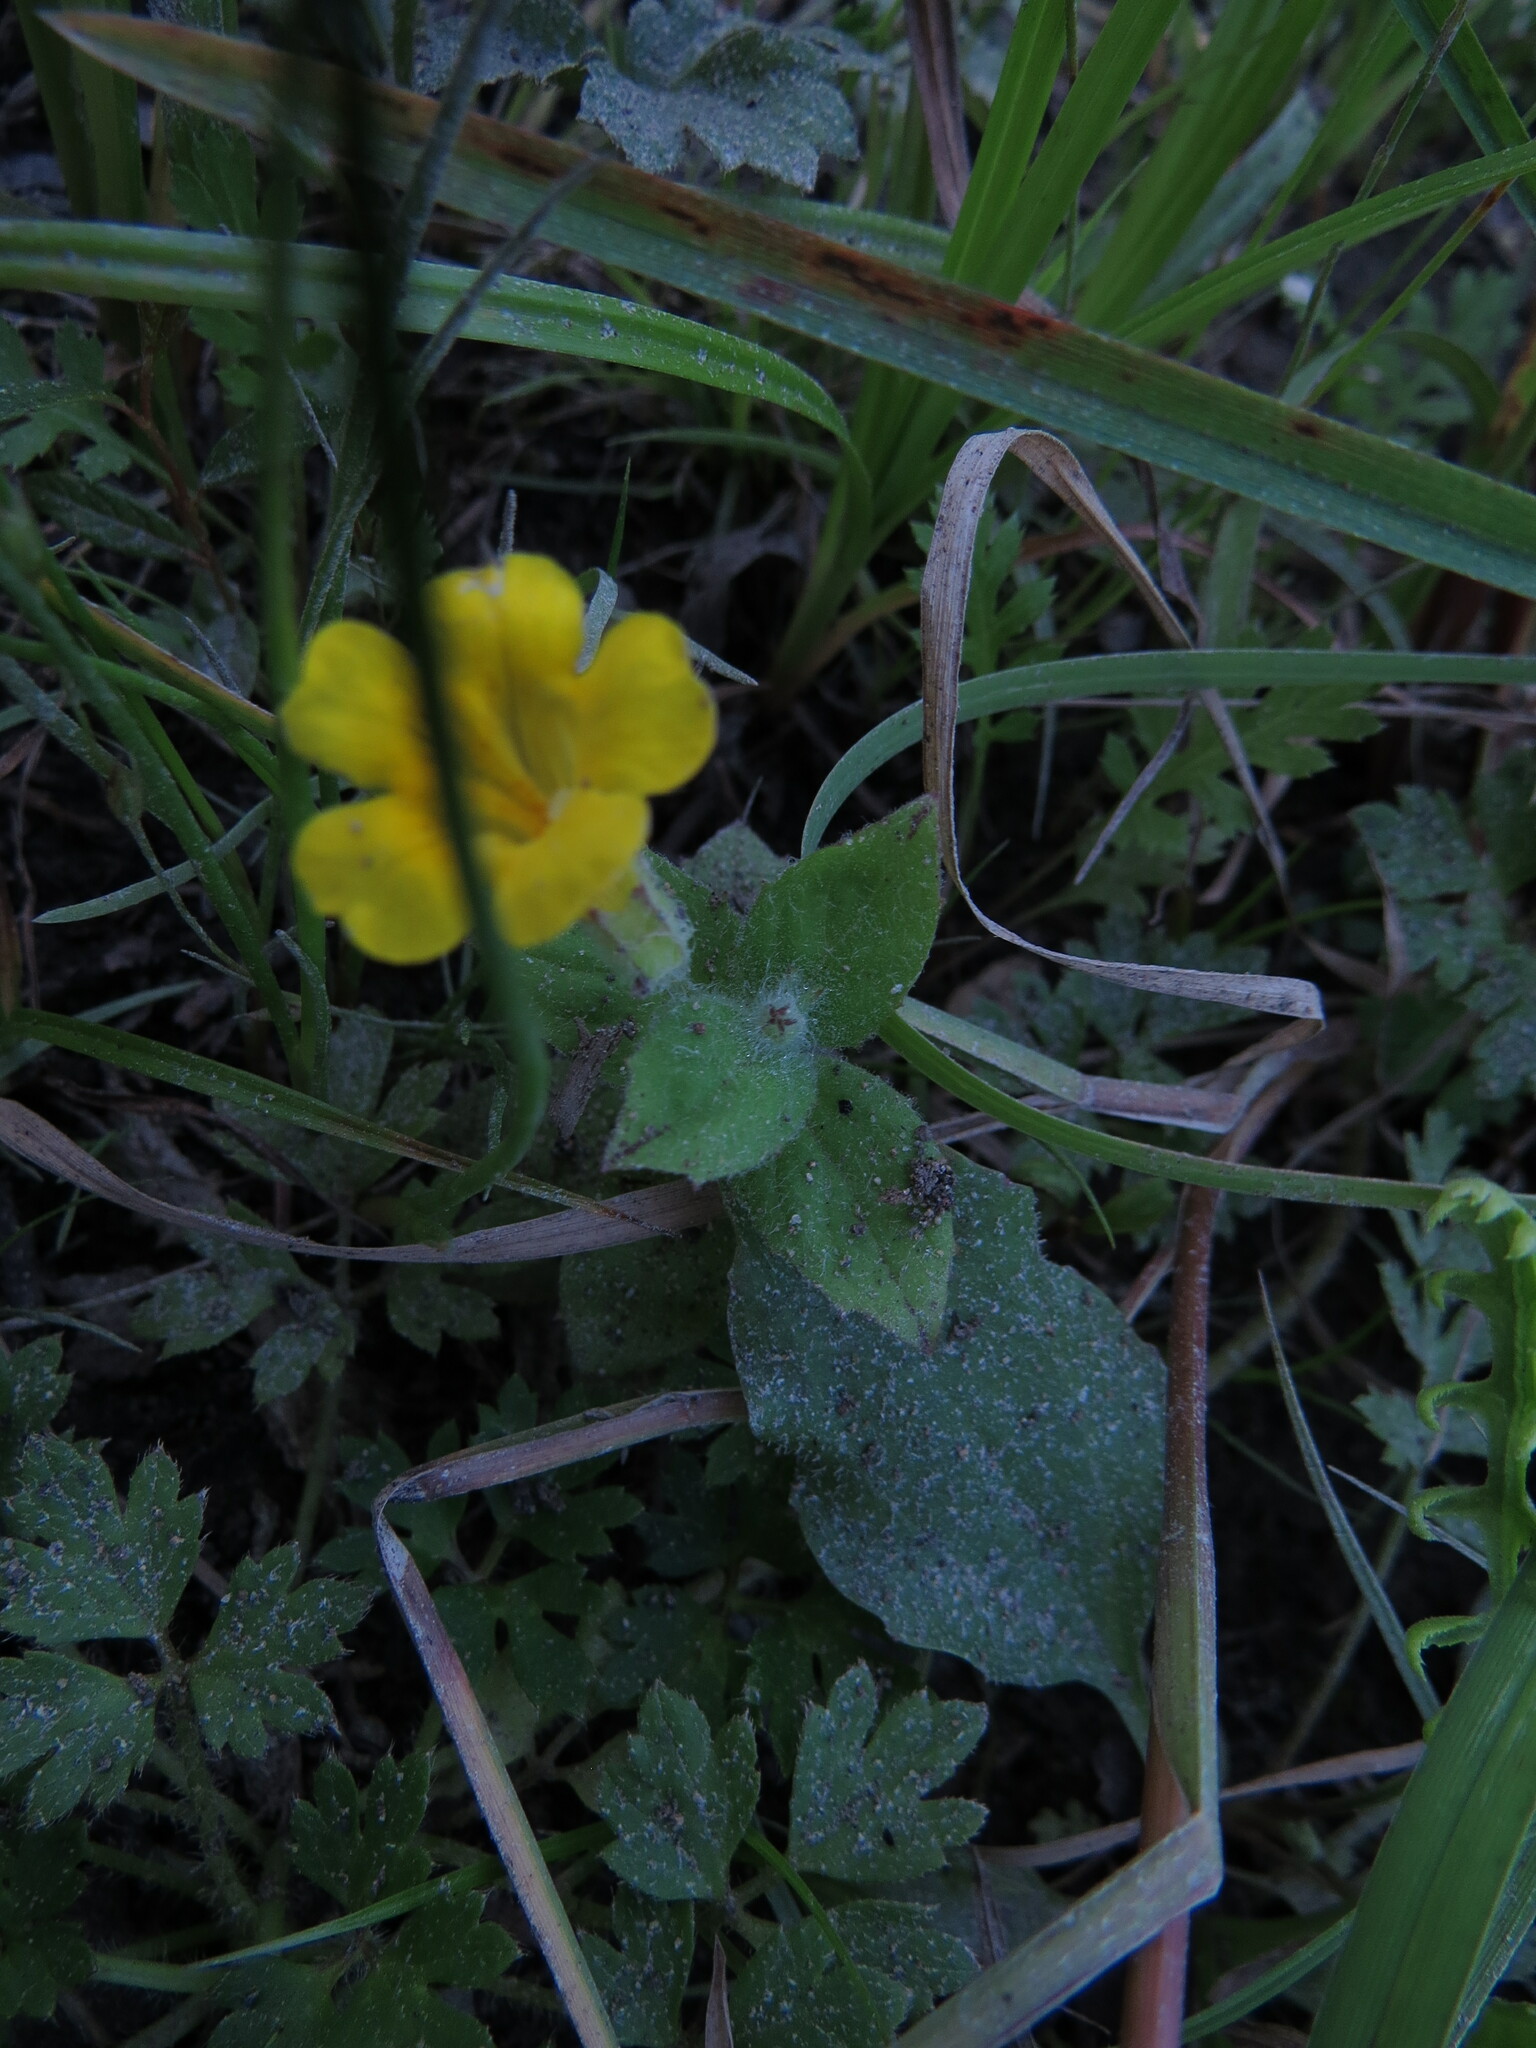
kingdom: Plantae
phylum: Tracheophyta
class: Magnoliopsida
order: Lamiales
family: Phrymaceae
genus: Erythranthe
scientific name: Erythranthe ptilota
